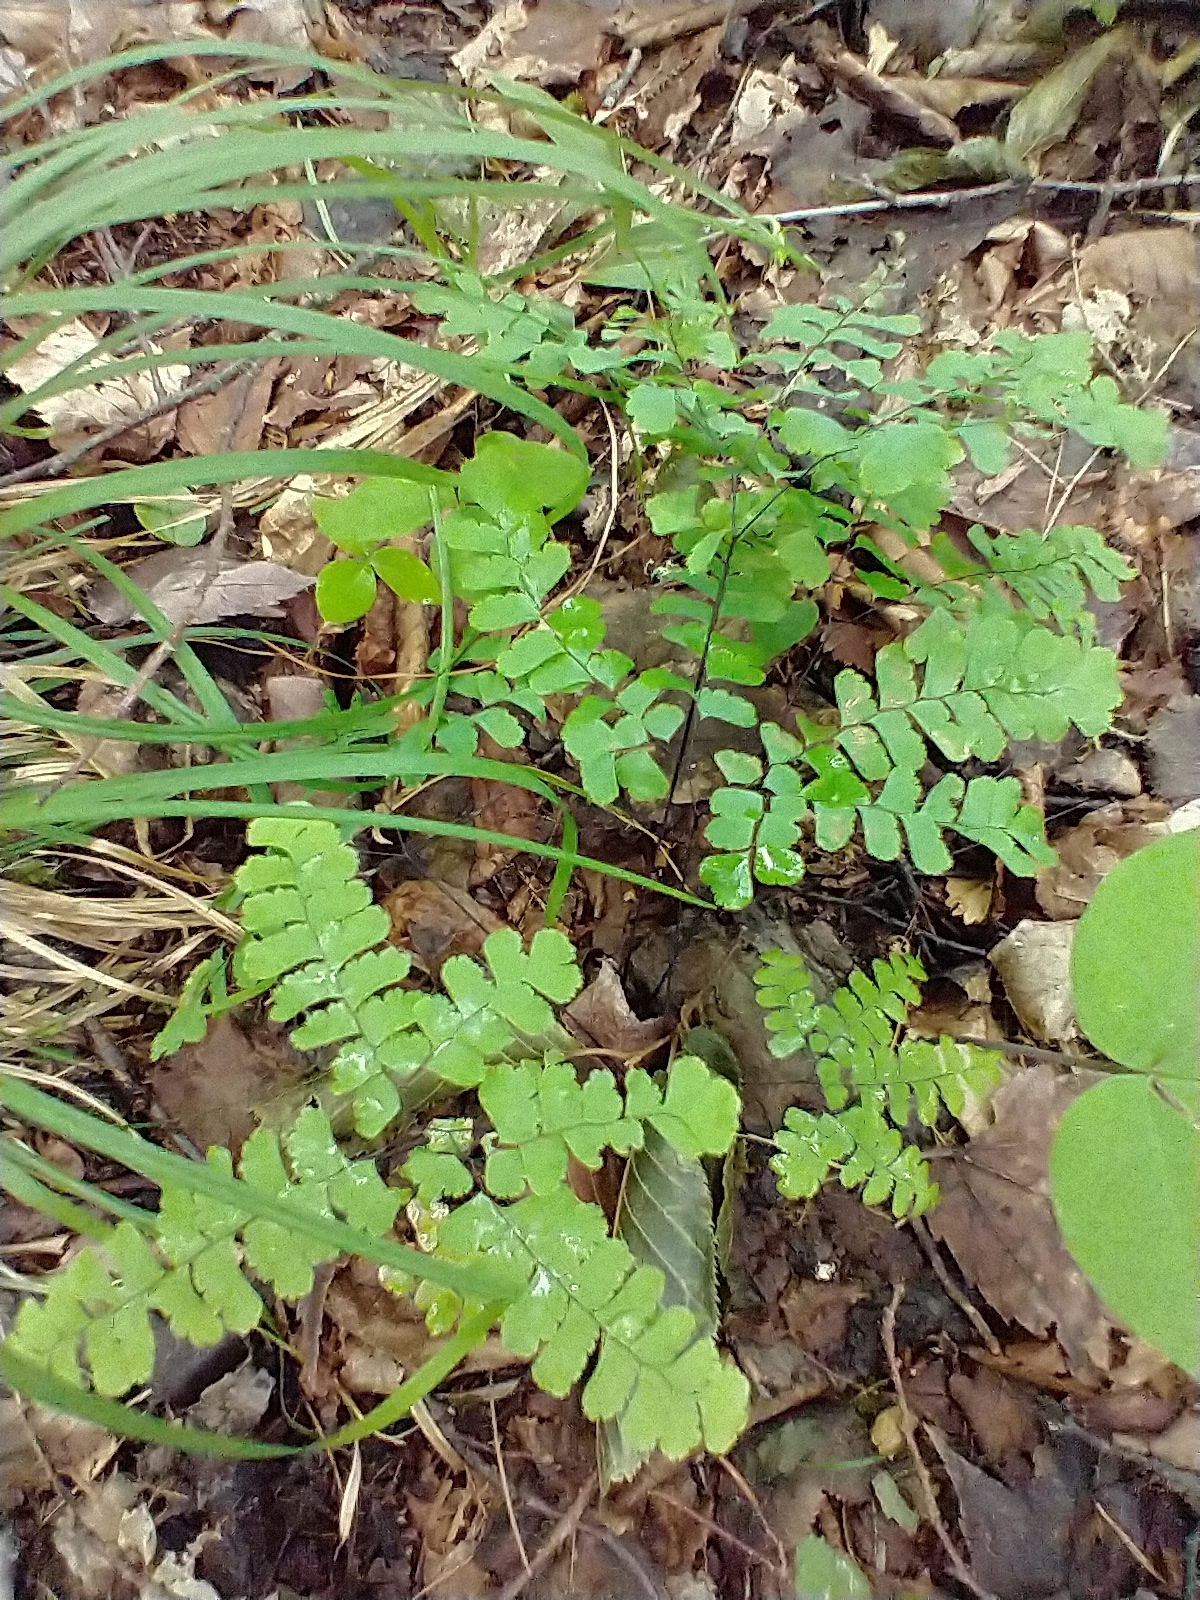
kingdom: Plantae
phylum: Tracheophyta
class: Polypodiopsida
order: Polypodiales
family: Pteridaceae
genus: Adiantum
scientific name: Adiantum pedatum
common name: Five-finger fern
